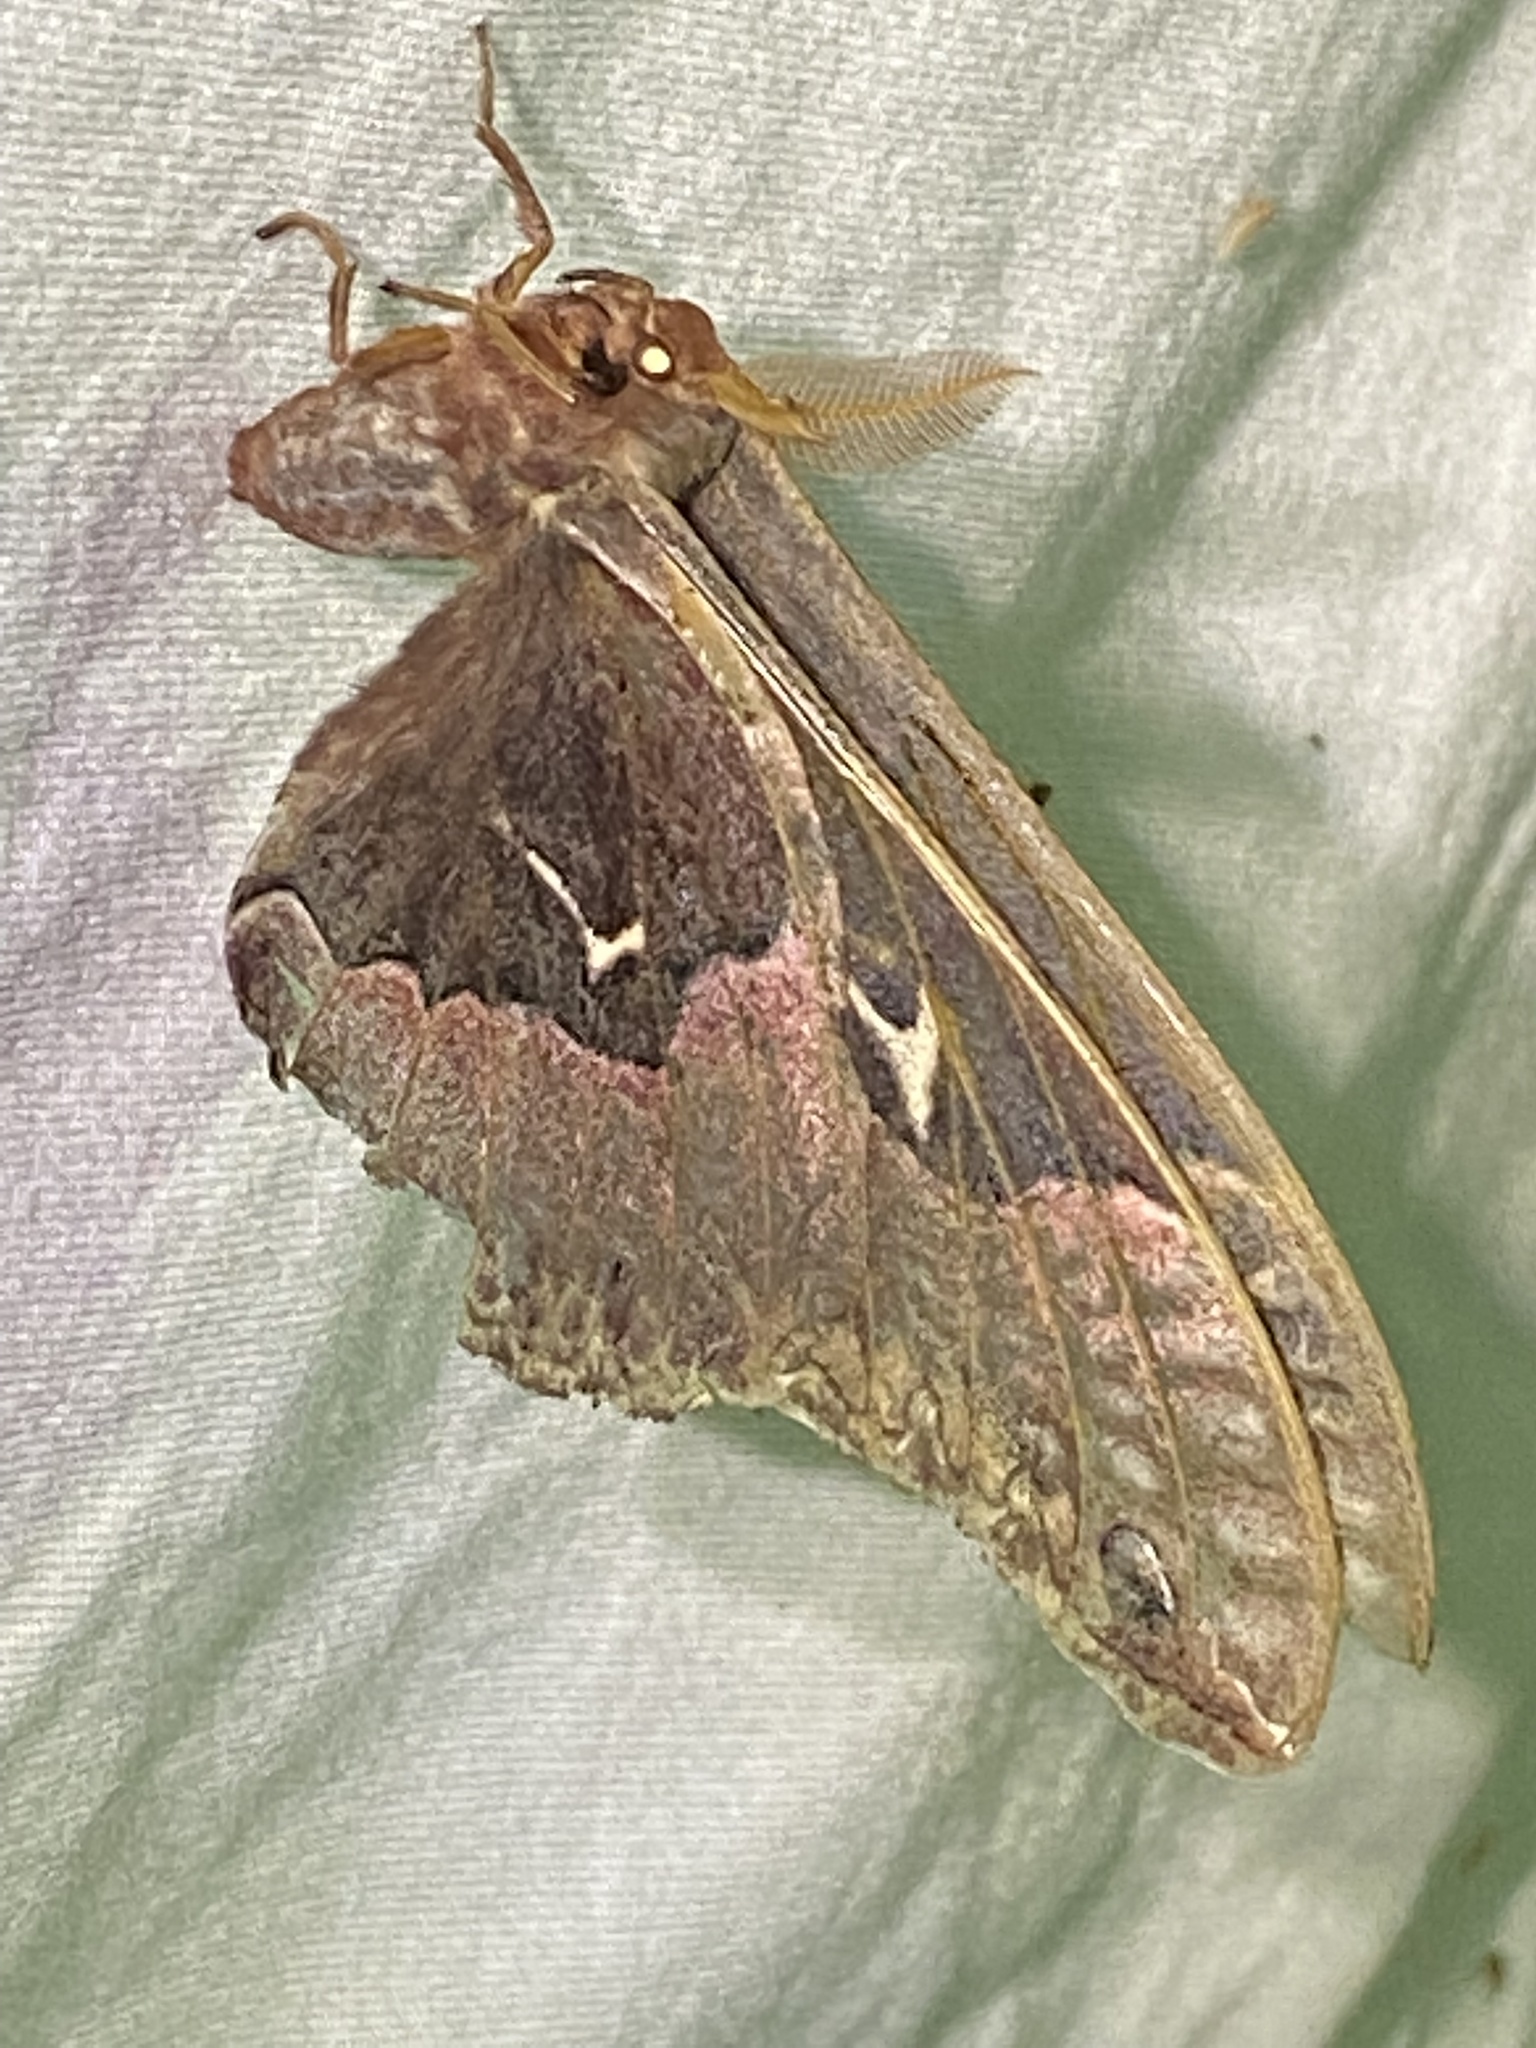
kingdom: Animalia
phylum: Arthropoda
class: Insecta
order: Lepidoptera
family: Saturniidae
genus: Callosamia
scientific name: Callosamia angulifera
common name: Tulip tree silkmoth
